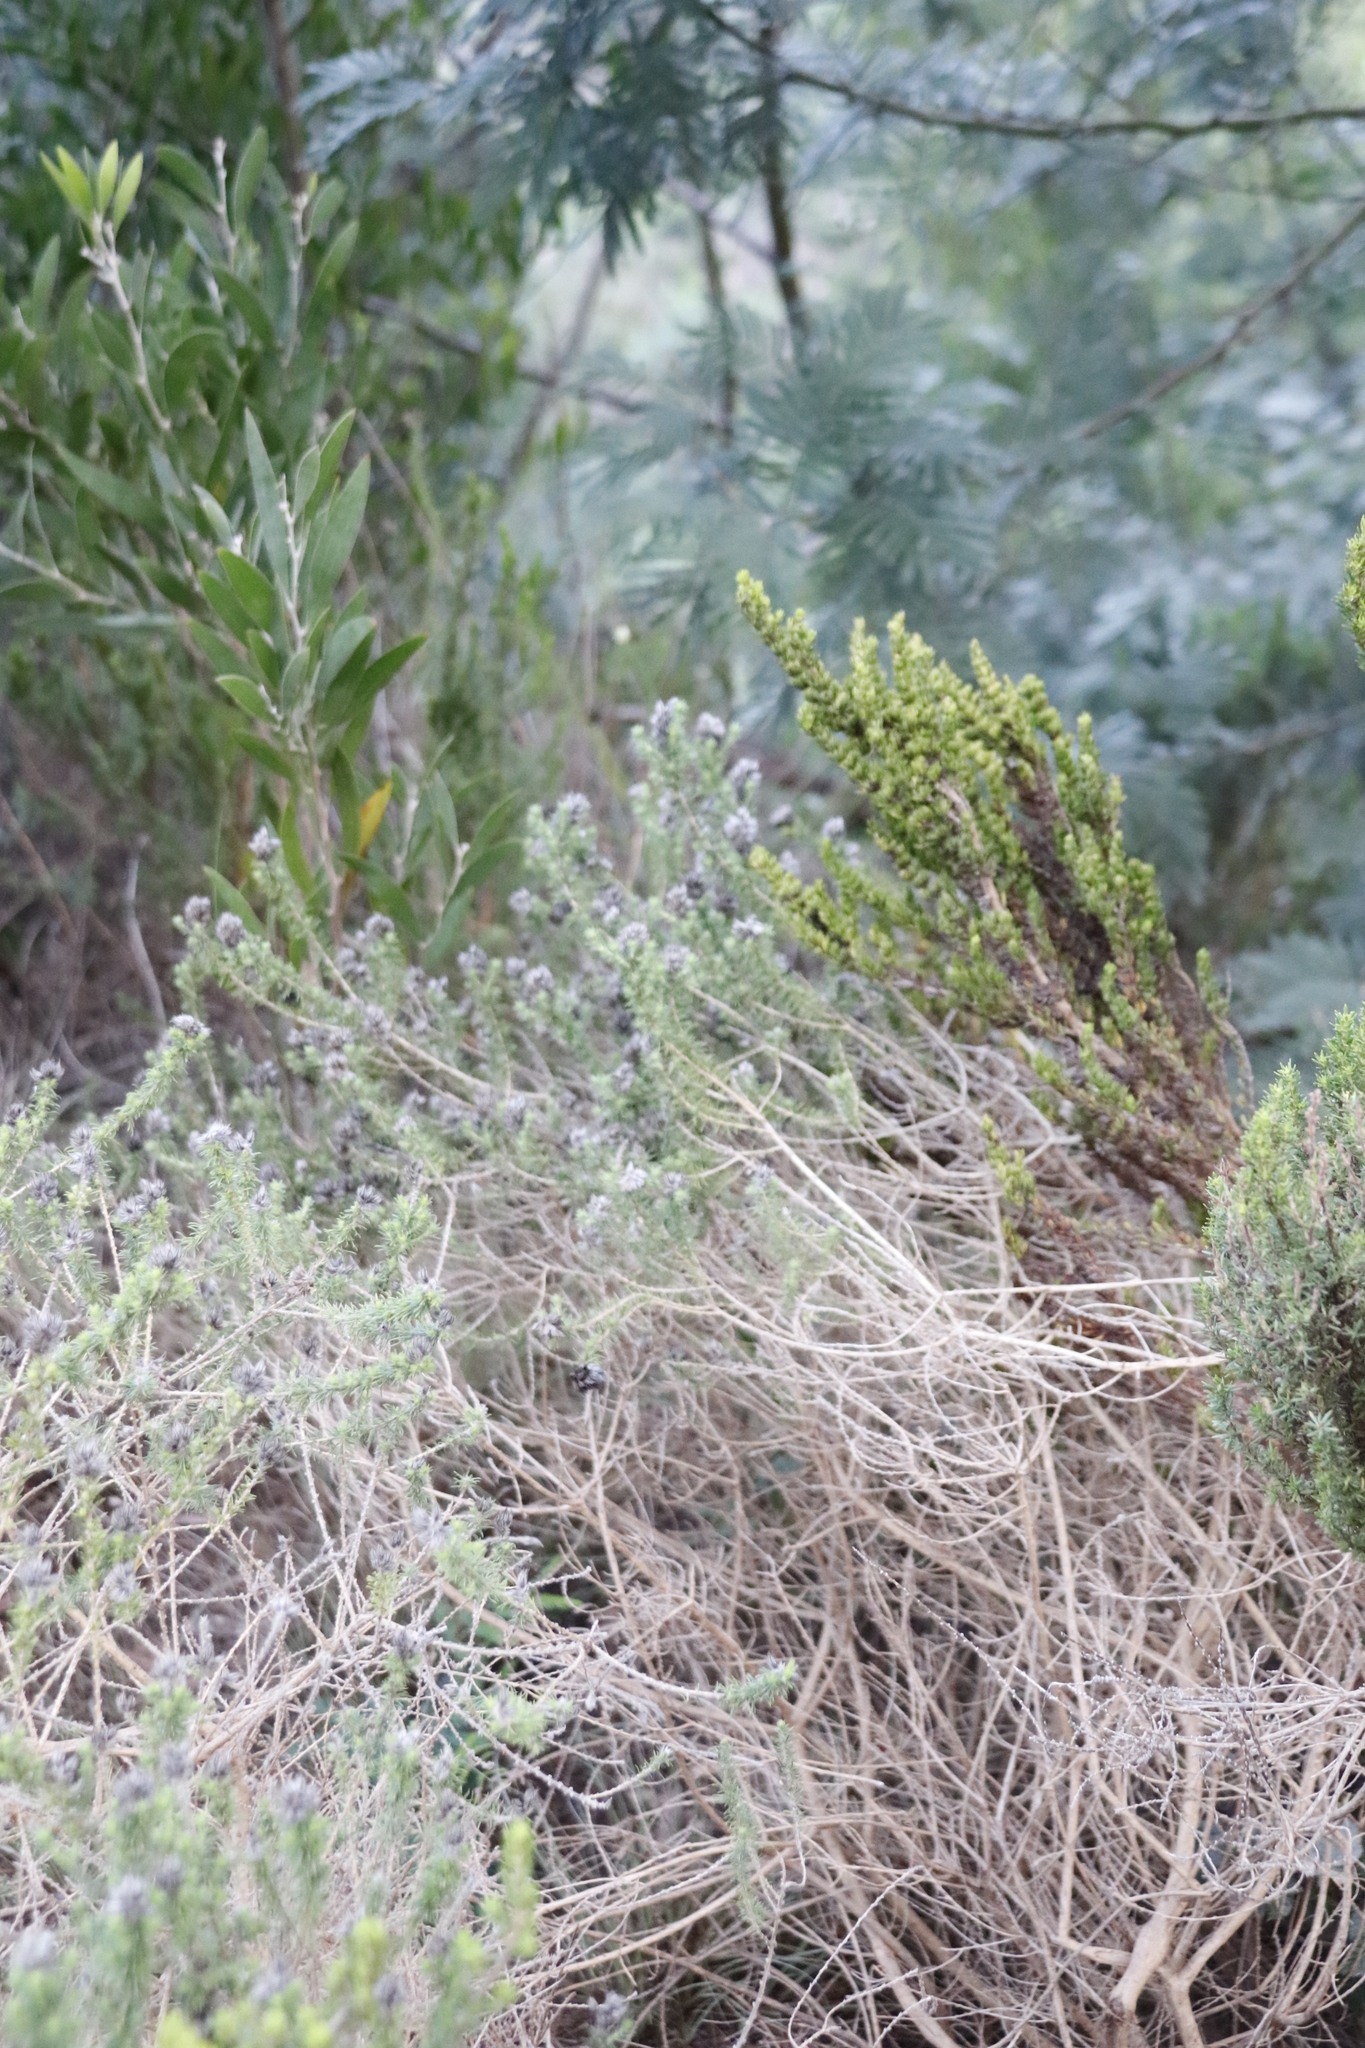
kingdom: Plantae
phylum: Tracheophyta
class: Magnoliopsida
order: Fabales
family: Fabaceae
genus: Aspalathus
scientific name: Aspalathus cephalotes
